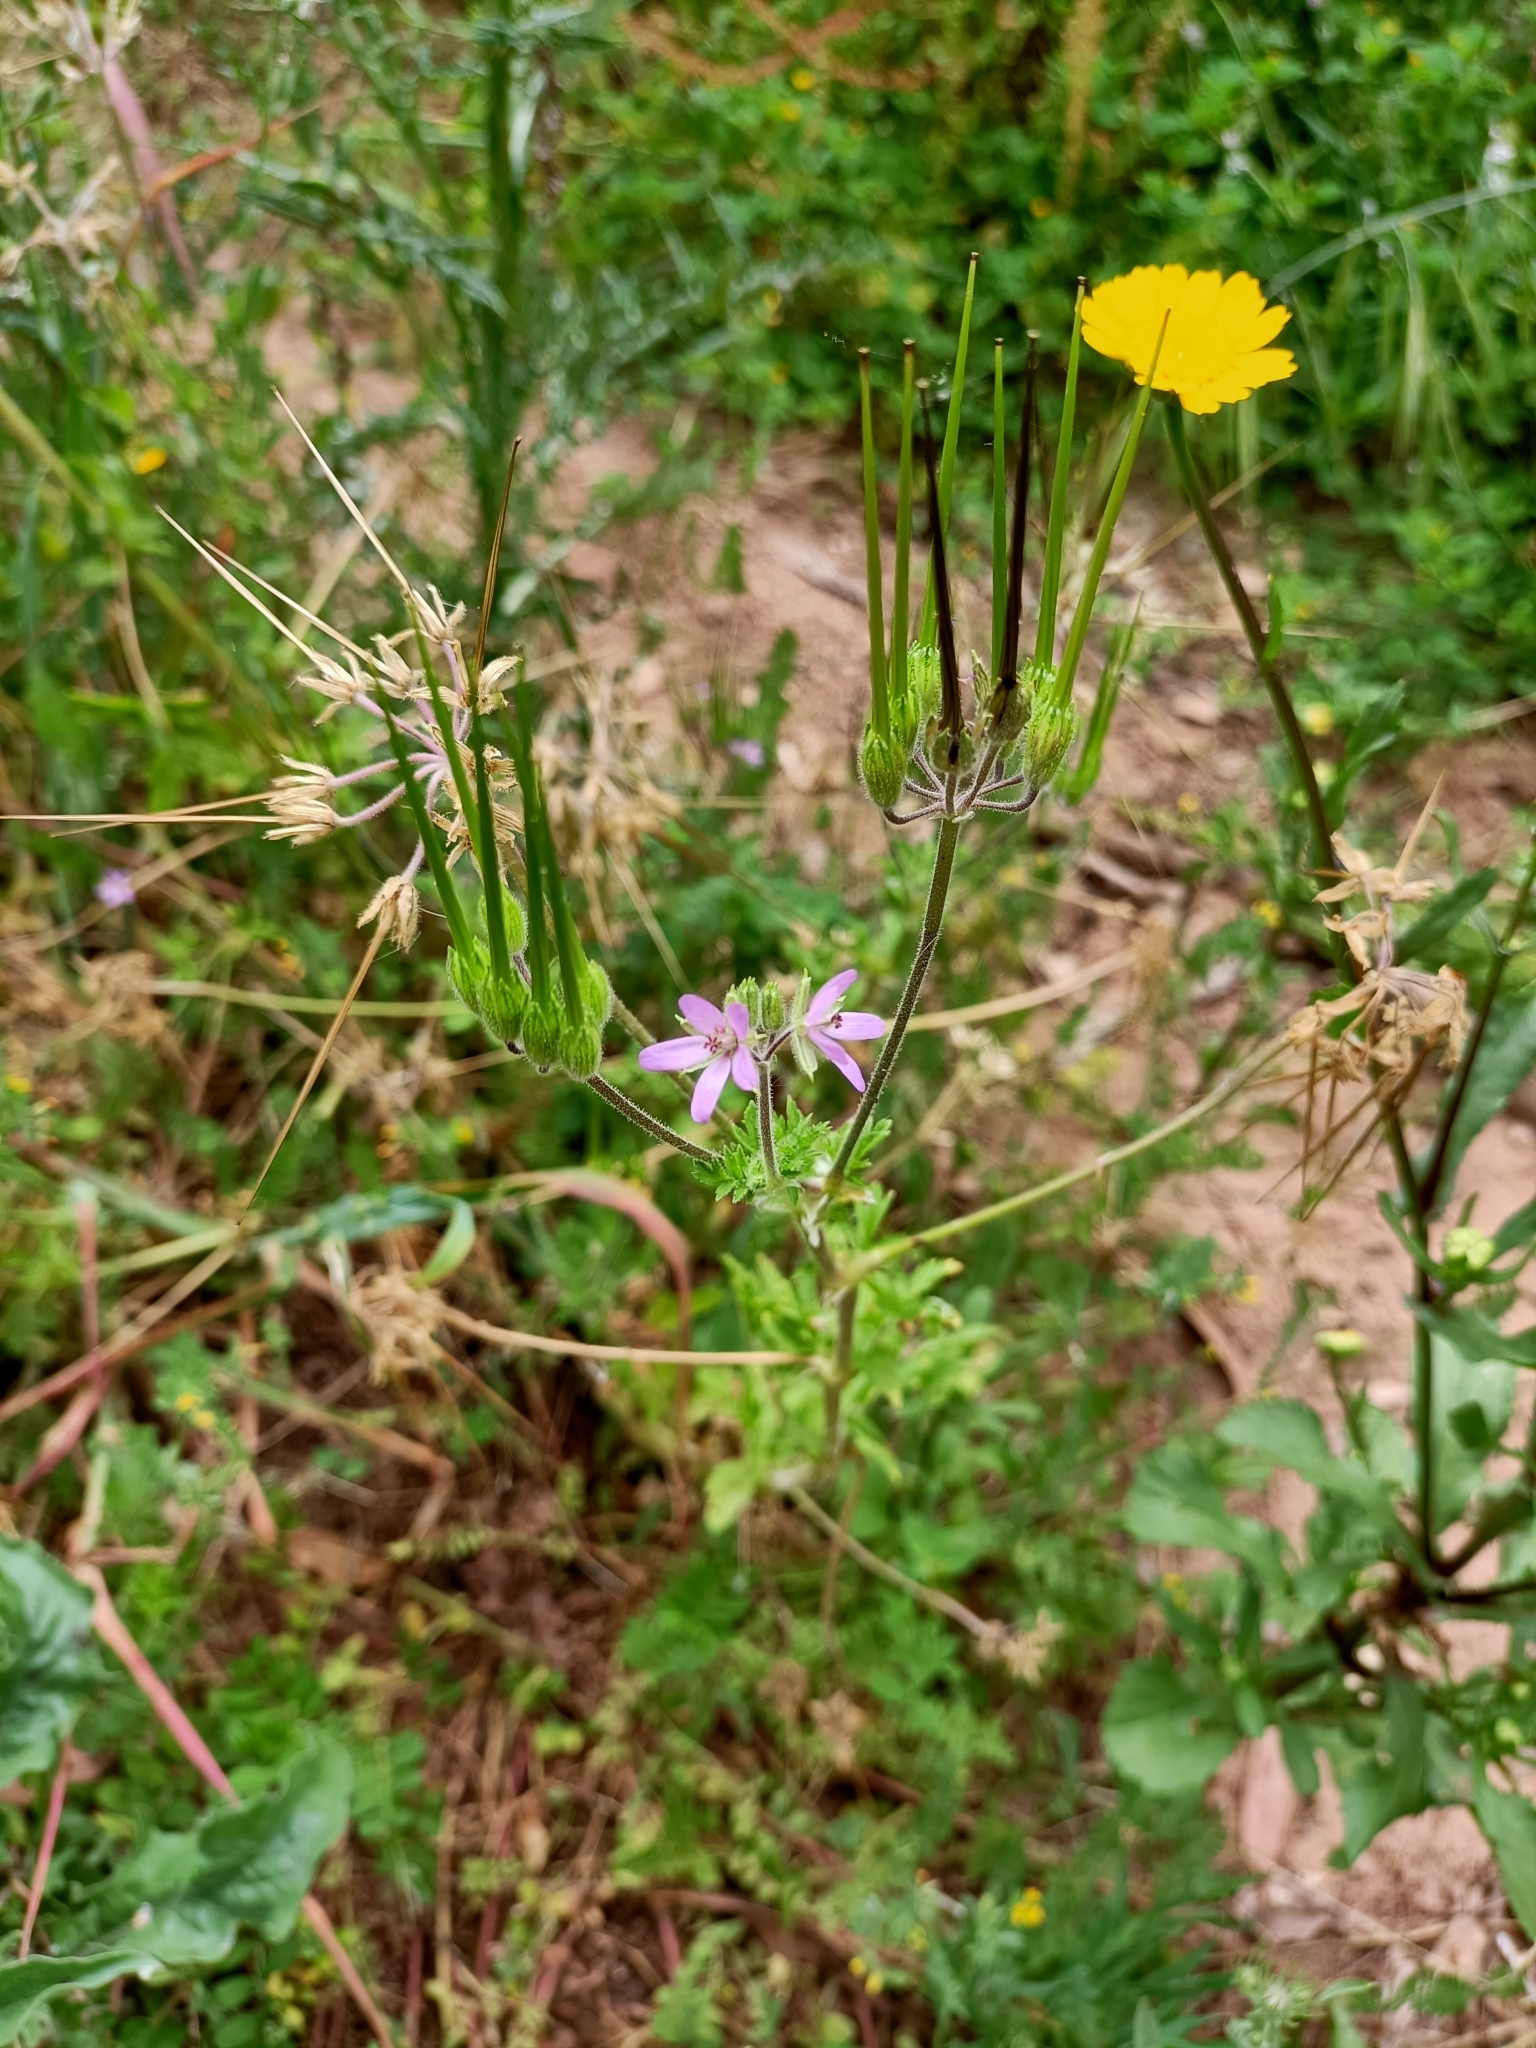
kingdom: Plantae
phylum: Tracheophyta
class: Magnoliopsida
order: Geraniales
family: Geraniaceae
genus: Erodium
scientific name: Erodium moschatum
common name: Musk stork's-bill
